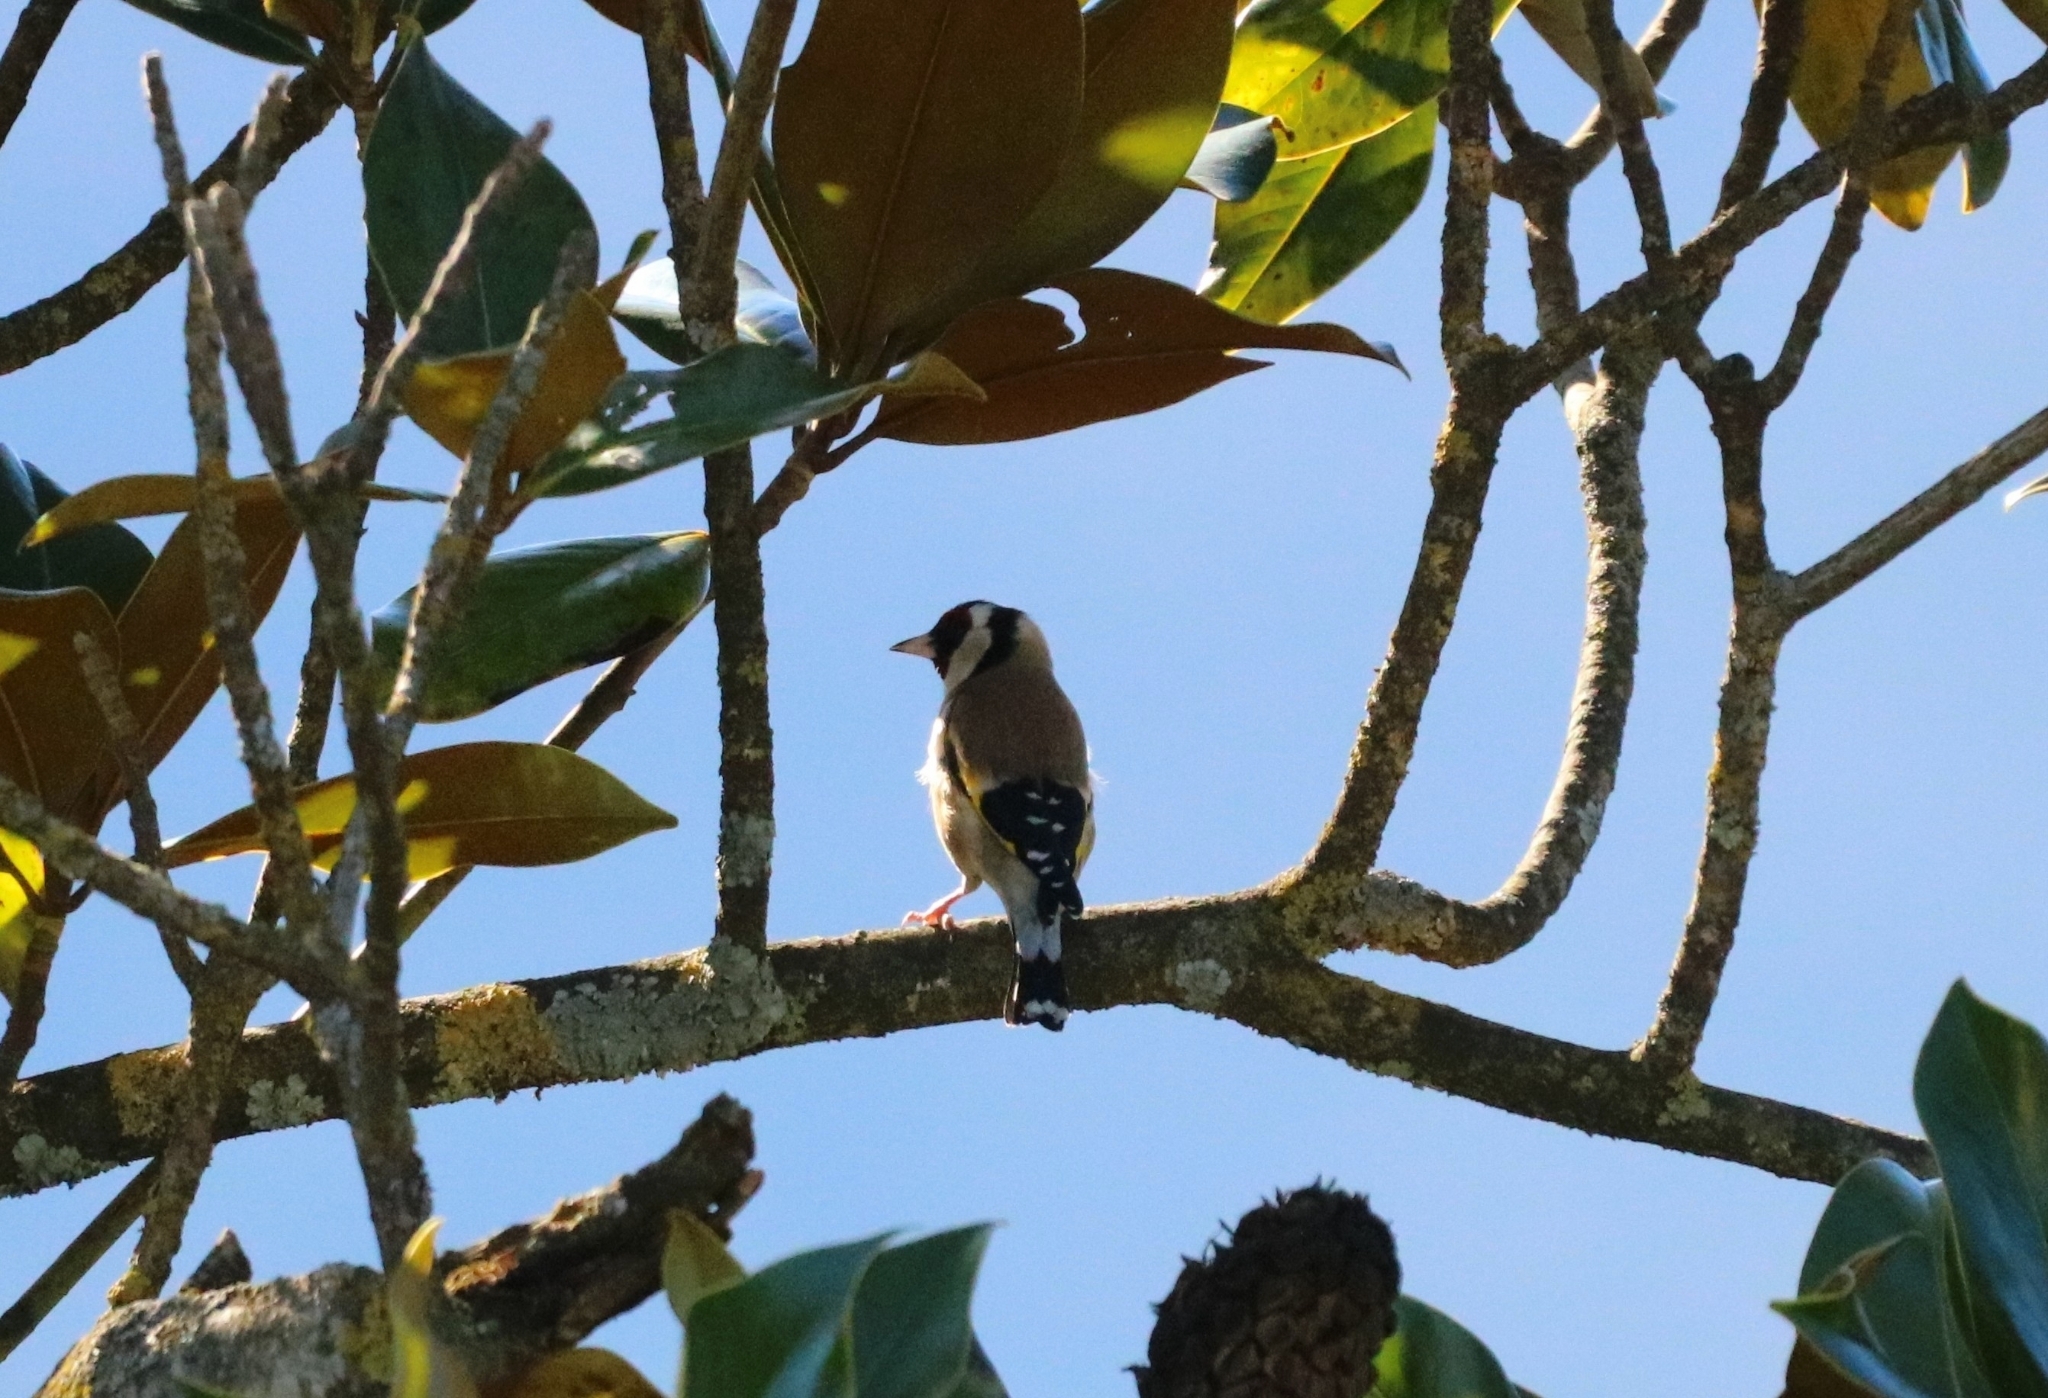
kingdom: Animalia
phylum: Chordata
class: Aves
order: Passeriformes
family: Fringillidae
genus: Carduelis
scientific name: Carduelis carduelis
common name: European goldfinch
